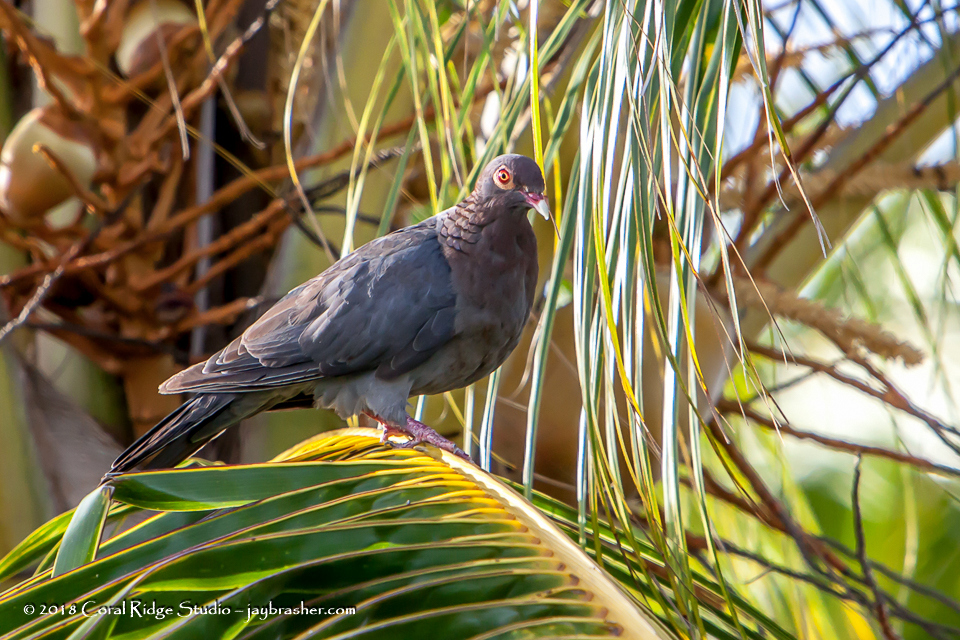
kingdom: Animalia
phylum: Chordata
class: Aves
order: Columbiformes
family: Columbidae
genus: Patagioenas
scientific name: Patagioenas squamosa
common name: Scaly-naped pigeon
